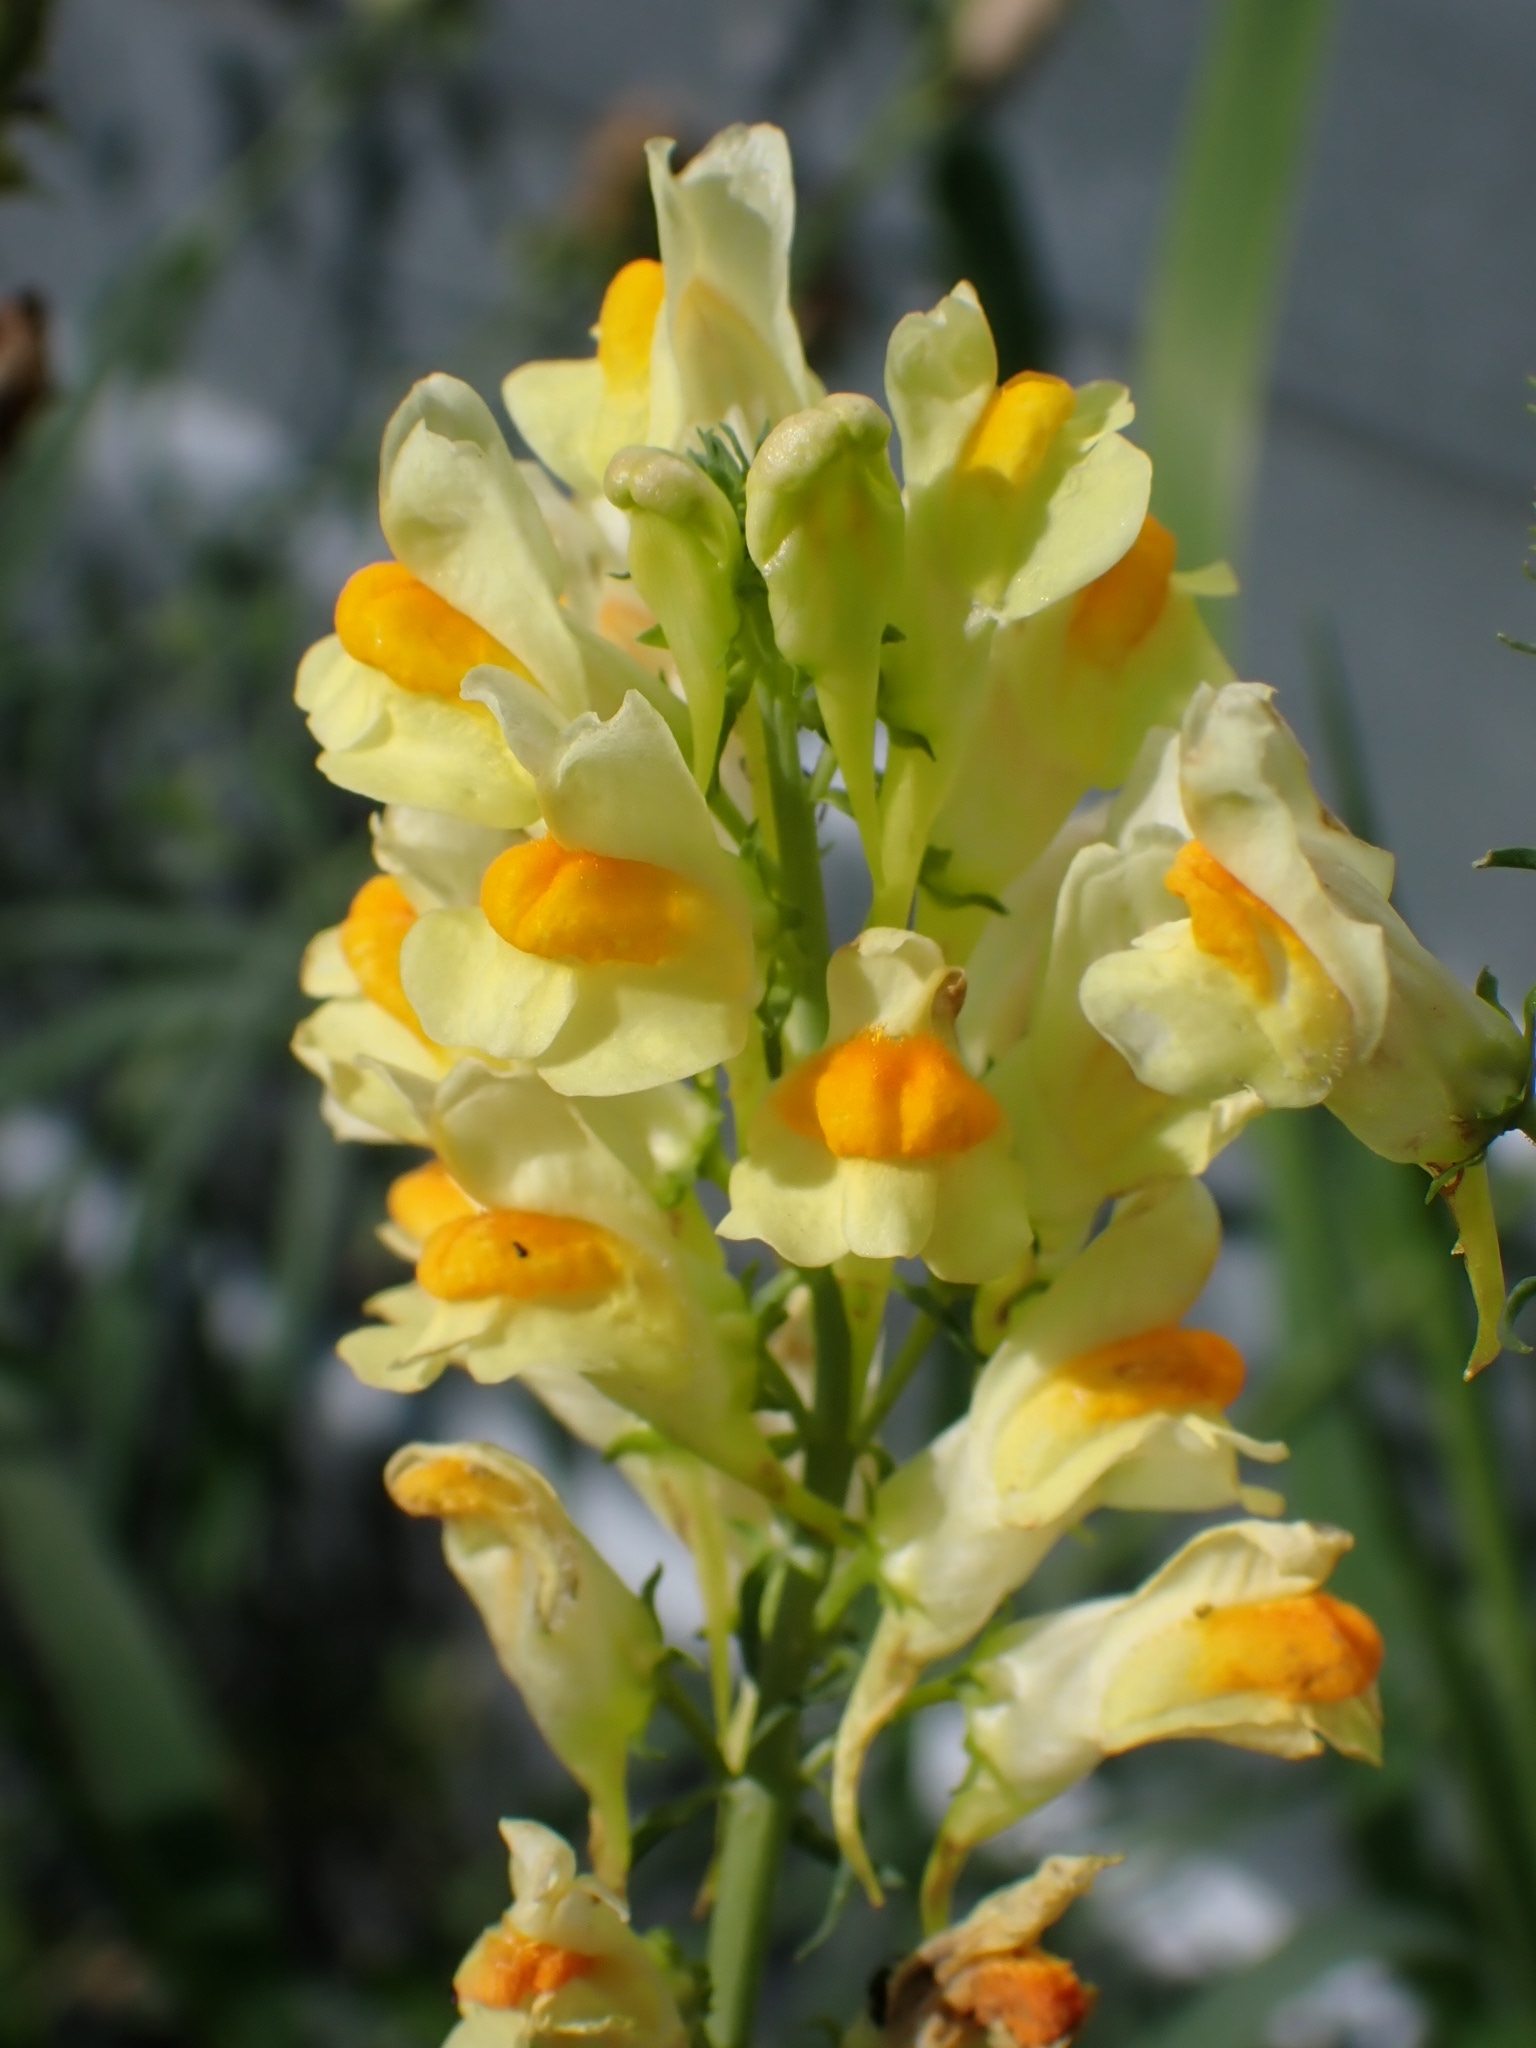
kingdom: Plantae
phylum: Tracheophyta
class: Magnoliopsida
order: Lamiales
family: Plantaginaceae
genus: Linaria
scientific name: Linaria vulgaris
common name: Butter and eggs
